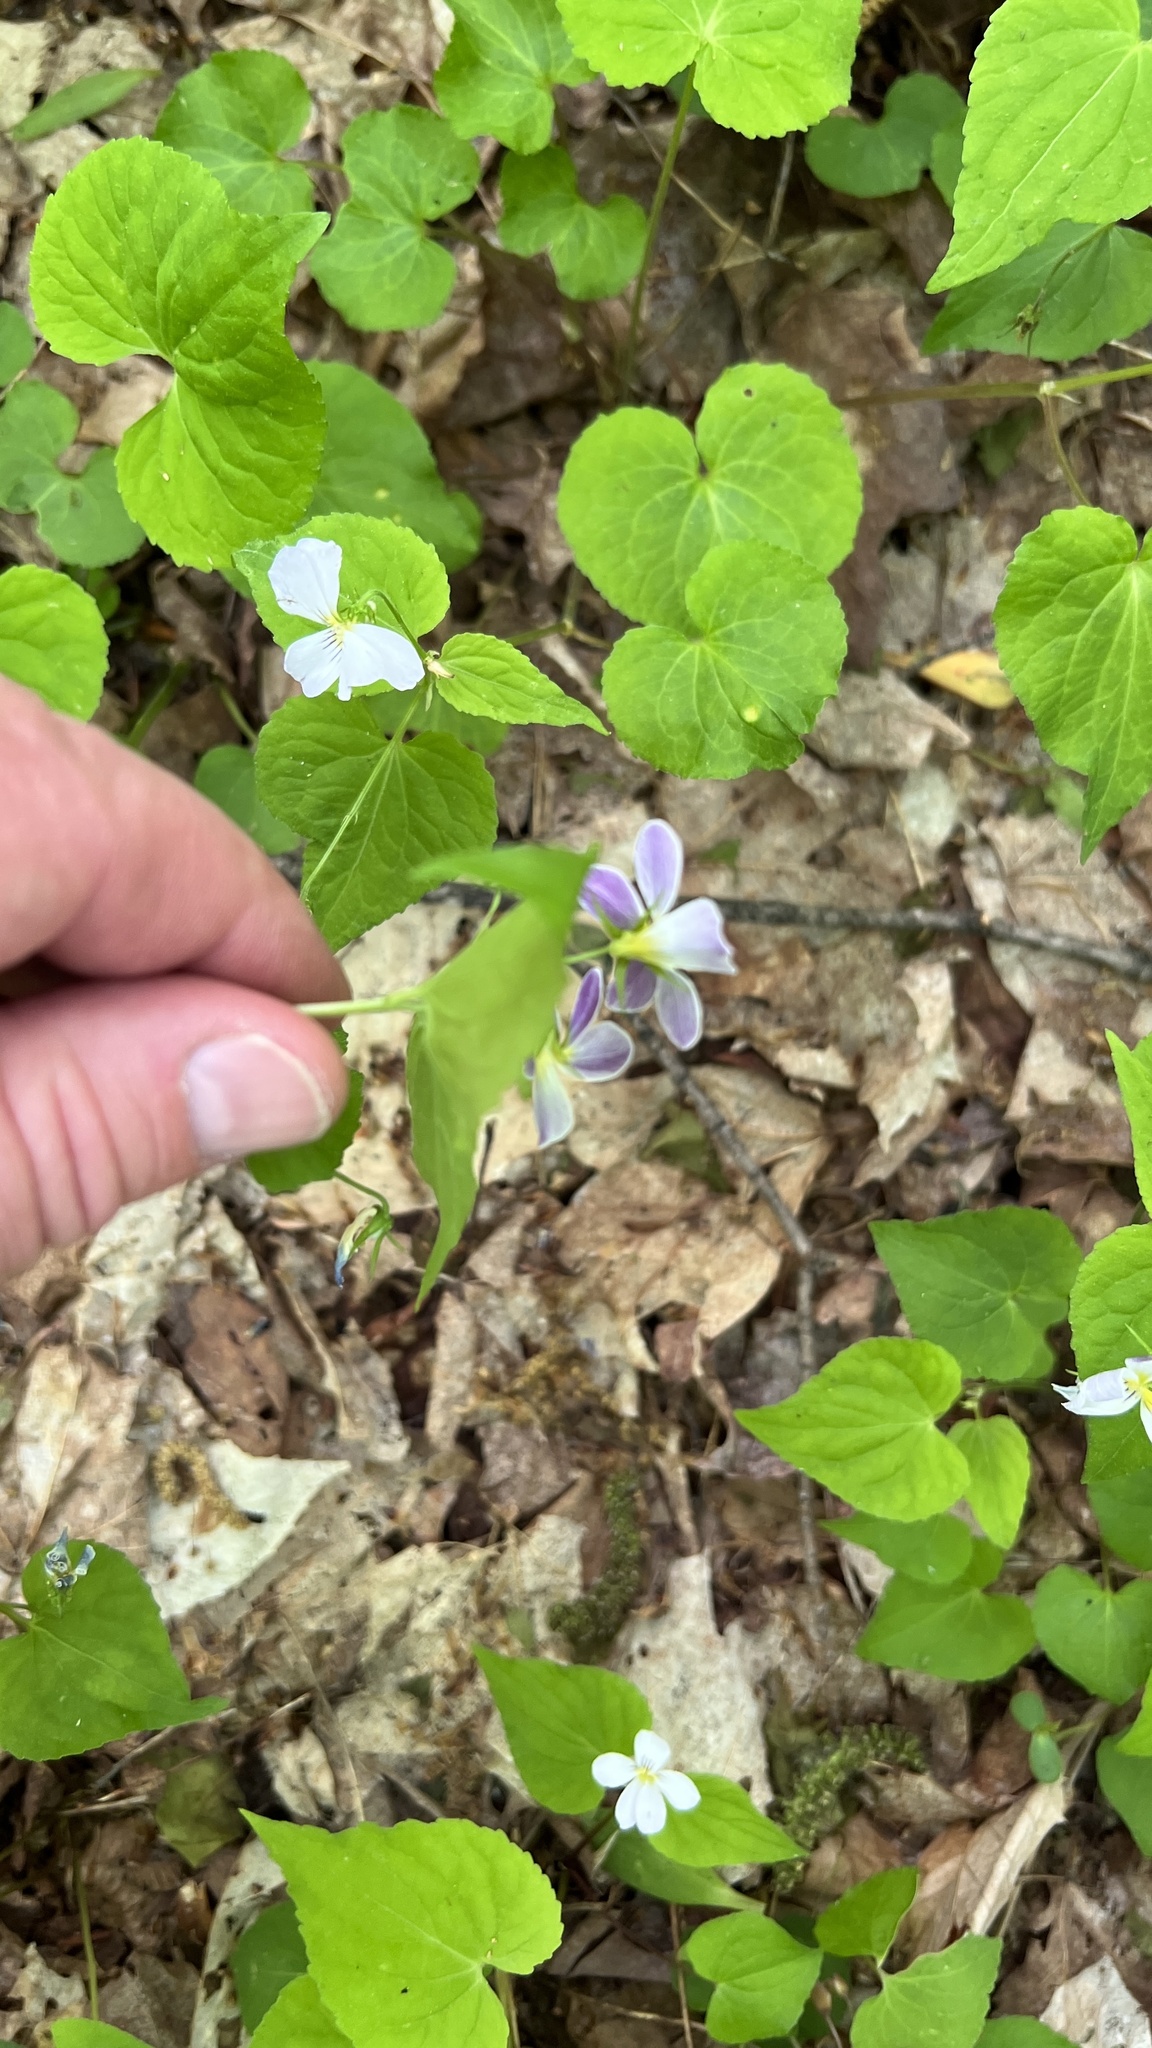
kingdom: Plantae
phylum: Tracheophyta
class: Magnoliopsida
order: Malpighiales
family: Violaceae
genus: Viola
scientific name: Viola canadensis
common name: Canada violet
